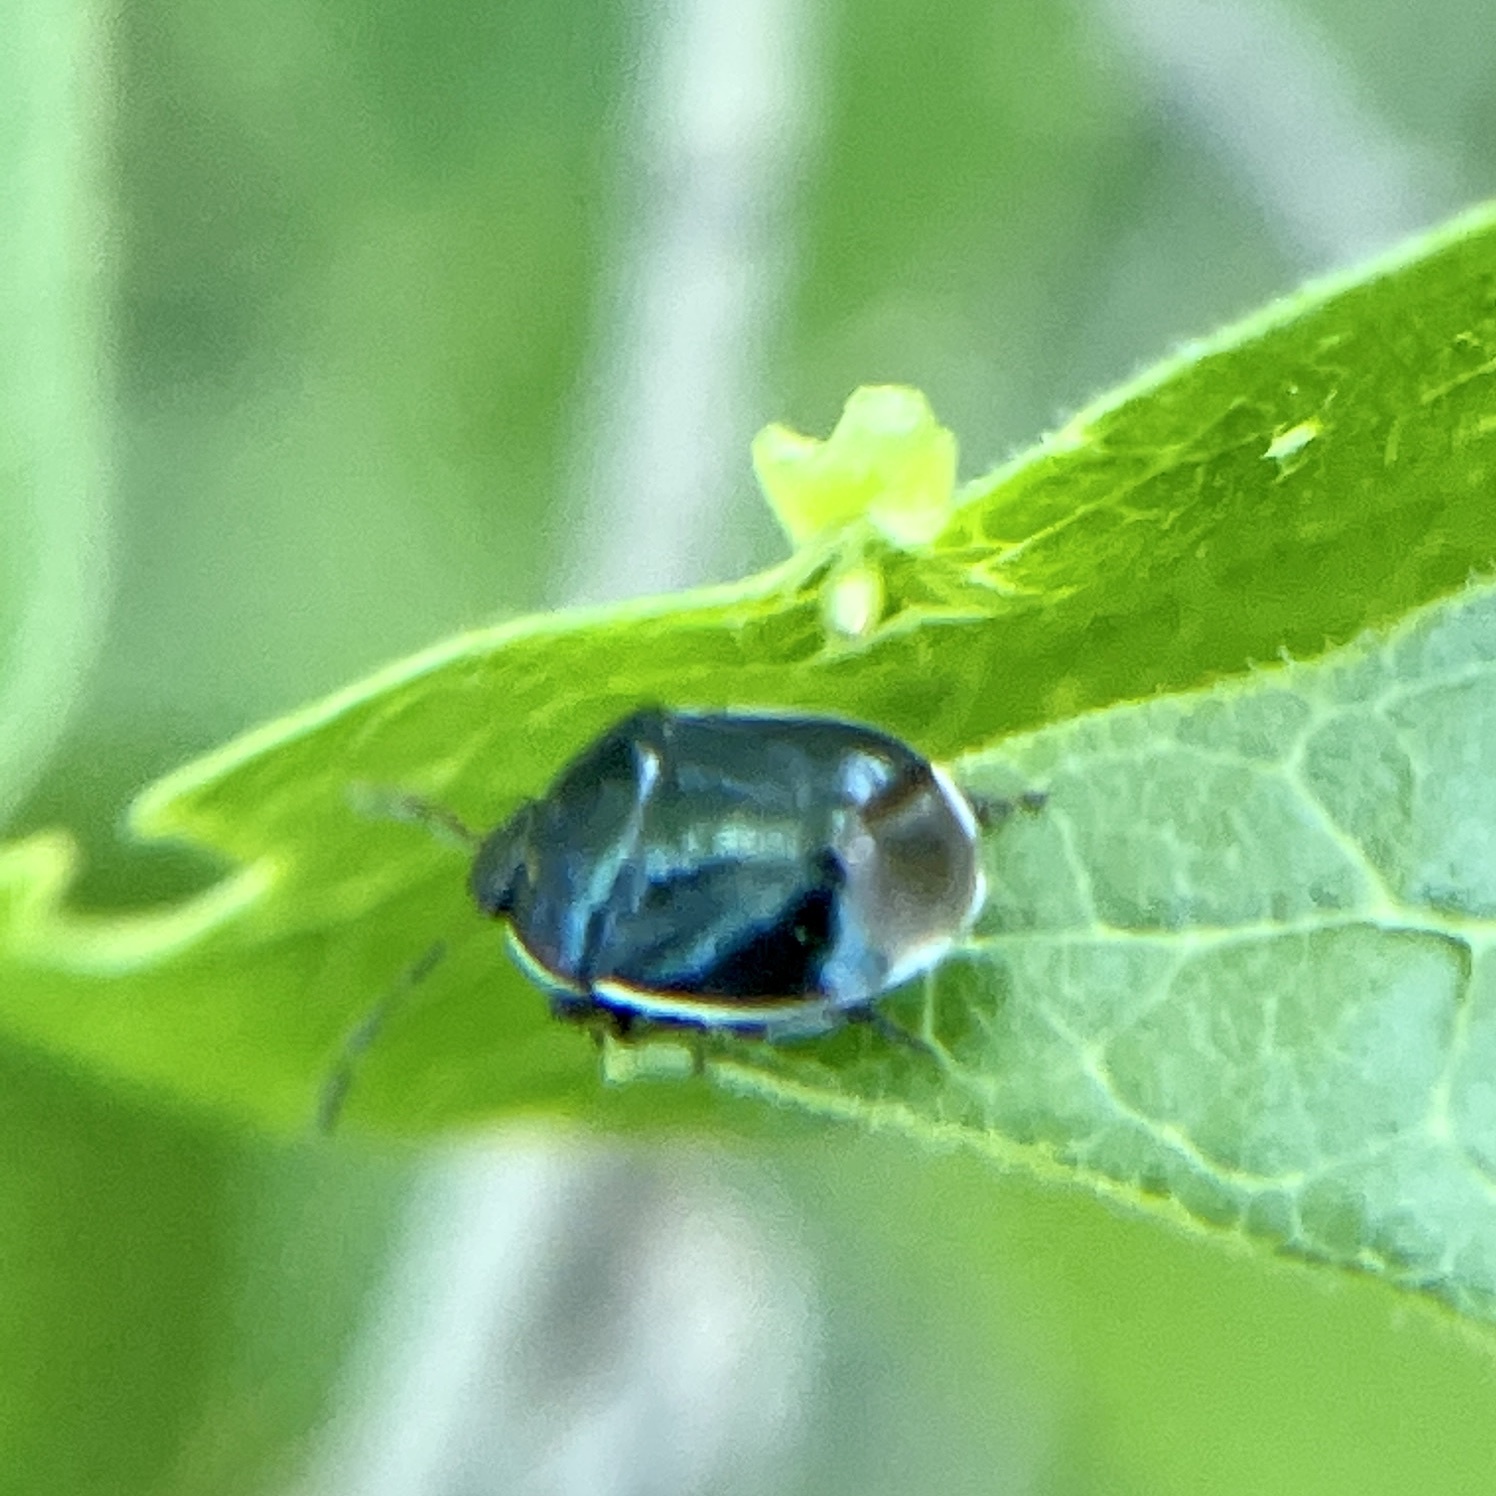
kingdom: Animalia
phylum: Arthropoda
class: Insecta
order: Hemiptera
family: Cydnidae
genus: Sehirus
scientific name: Sehirus cinctus
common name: White-margined burrower bug
